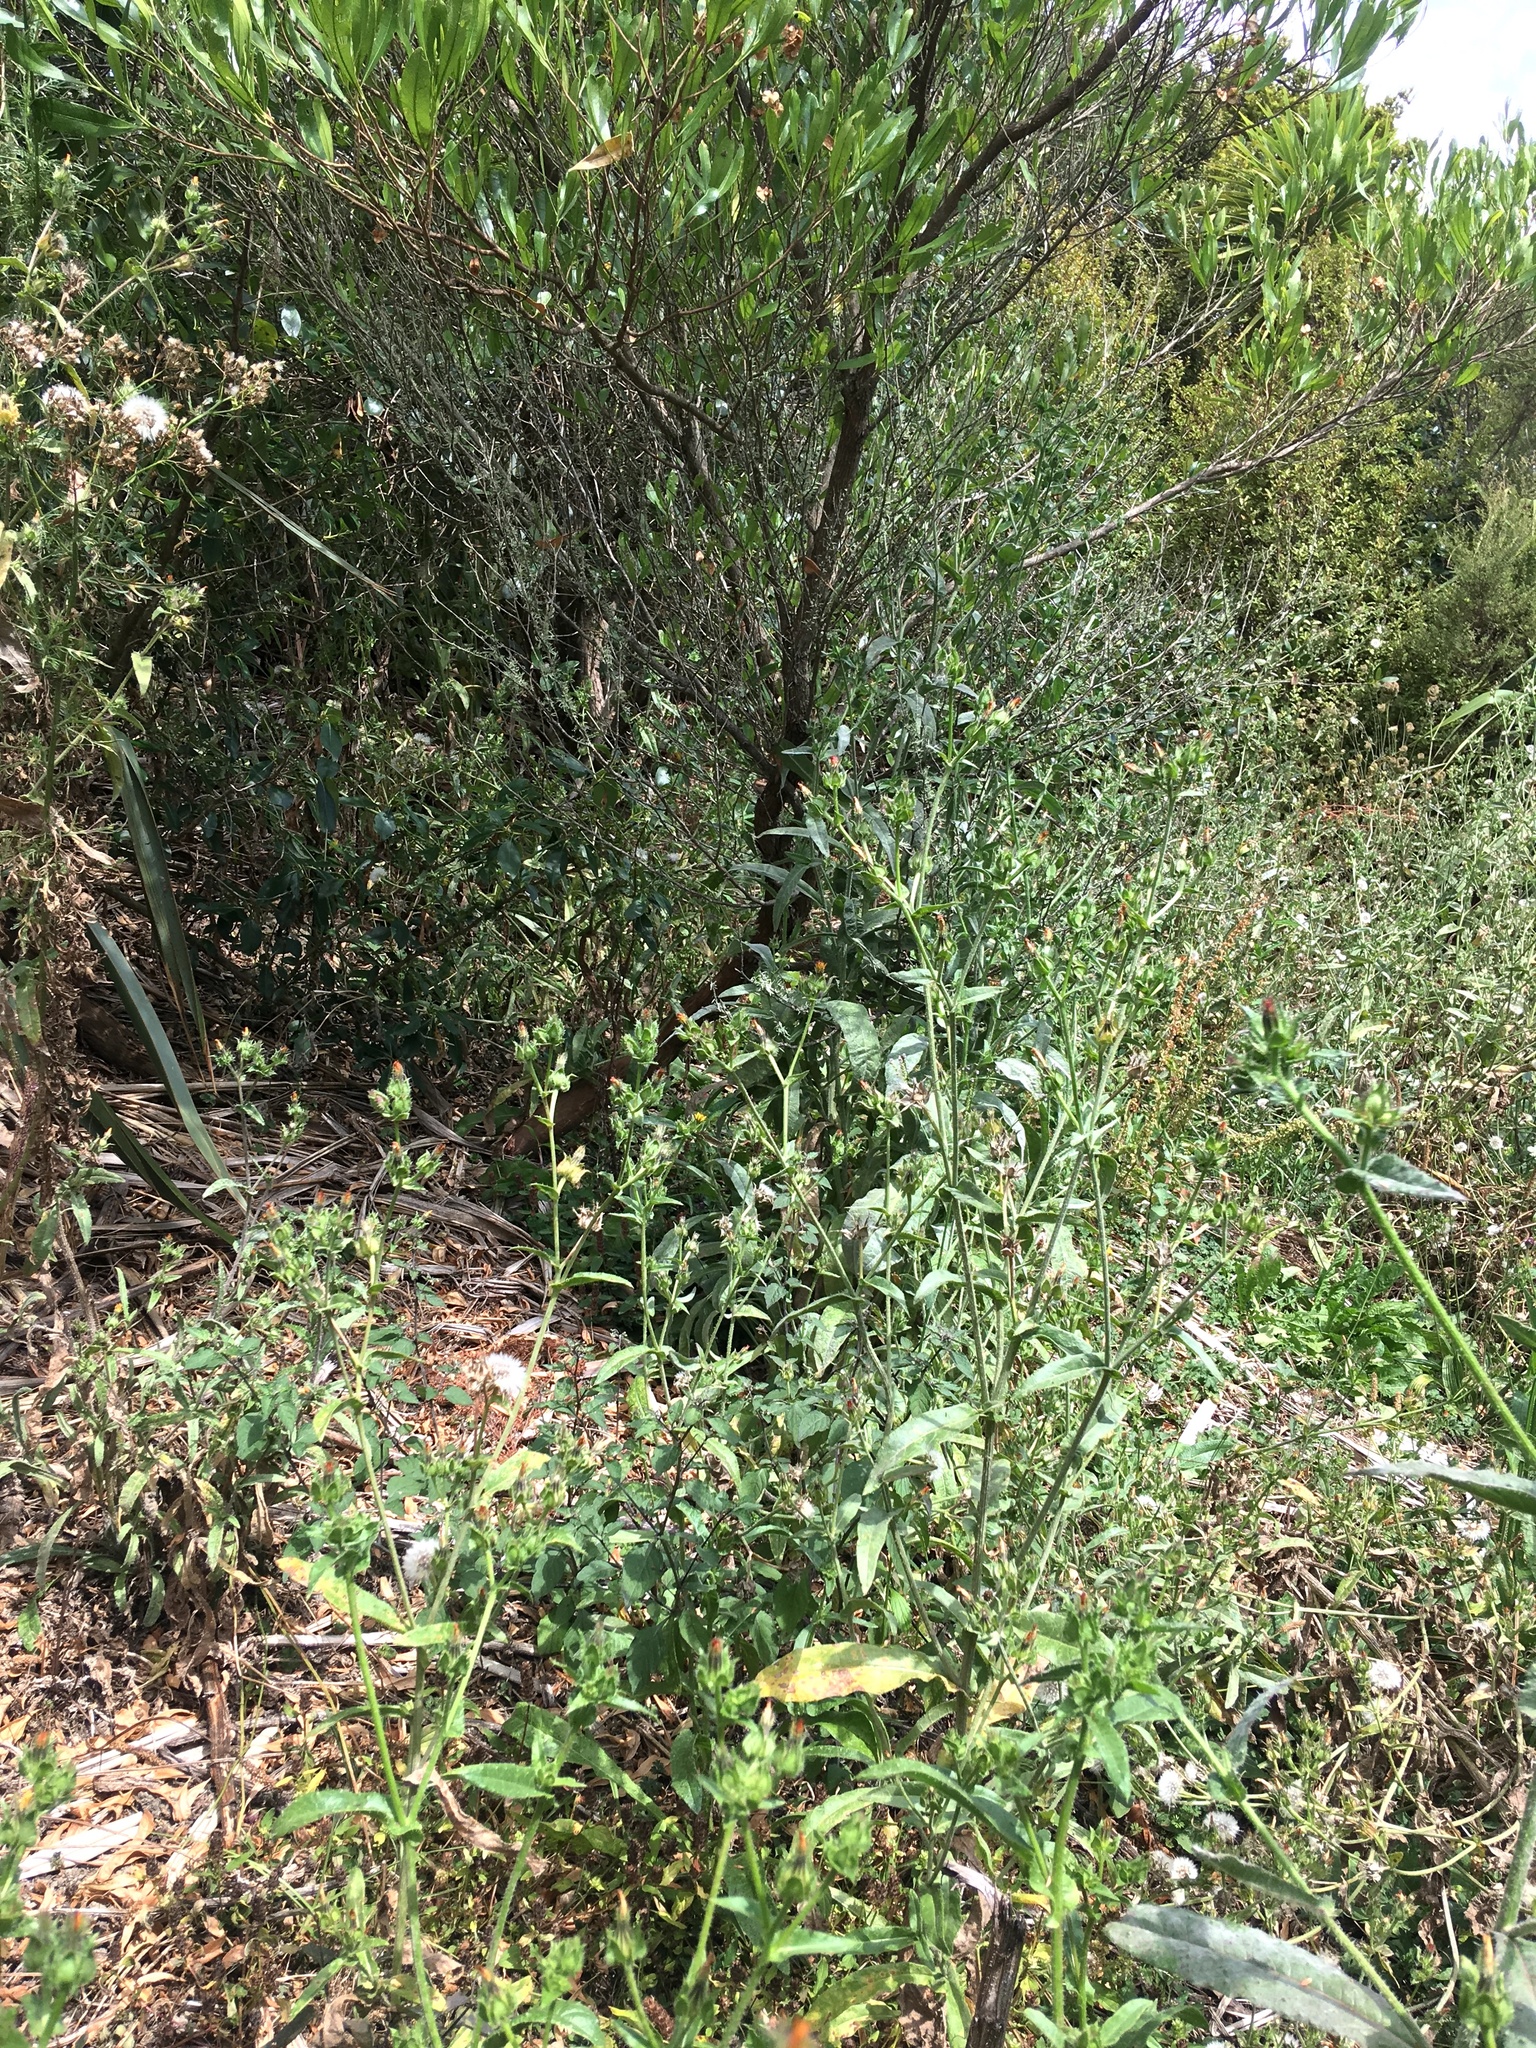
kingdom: Plantae
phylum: Tracheophyta
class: Magnoliopsida
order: Sapindales
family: Sapindaceae
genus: Dodonaea
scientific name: Dodonaea viscosa
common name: Hopbush
